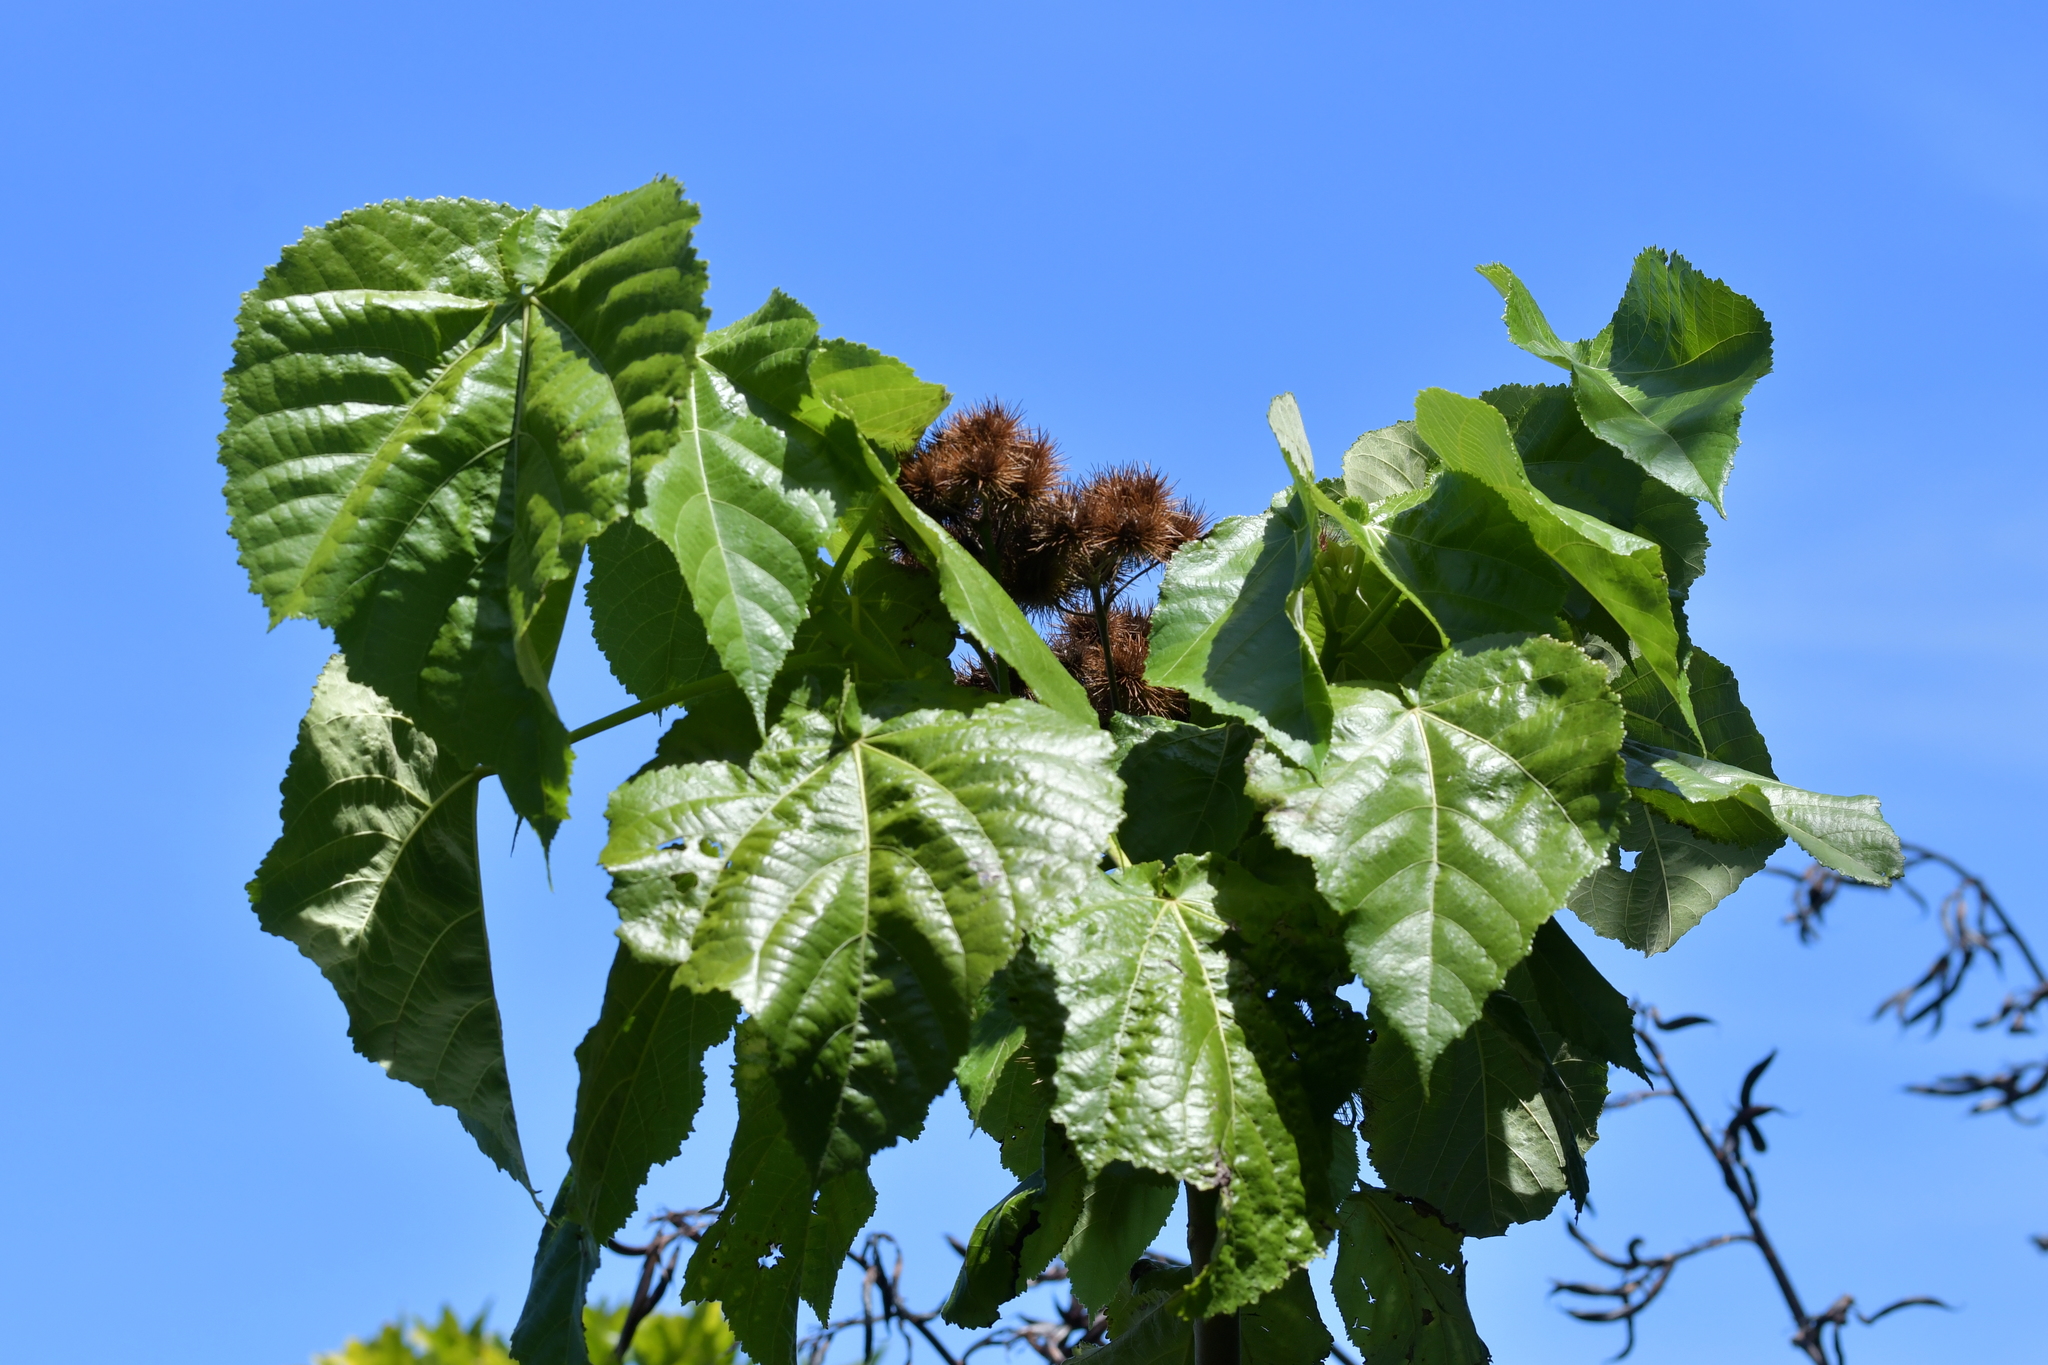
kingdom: Plantae
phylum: Tracheophyta
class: Magnoliopsida
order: Malvales
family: Malvaceae
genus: Entelea
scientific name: Entelea arborescens
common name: New zealand-mulberry
